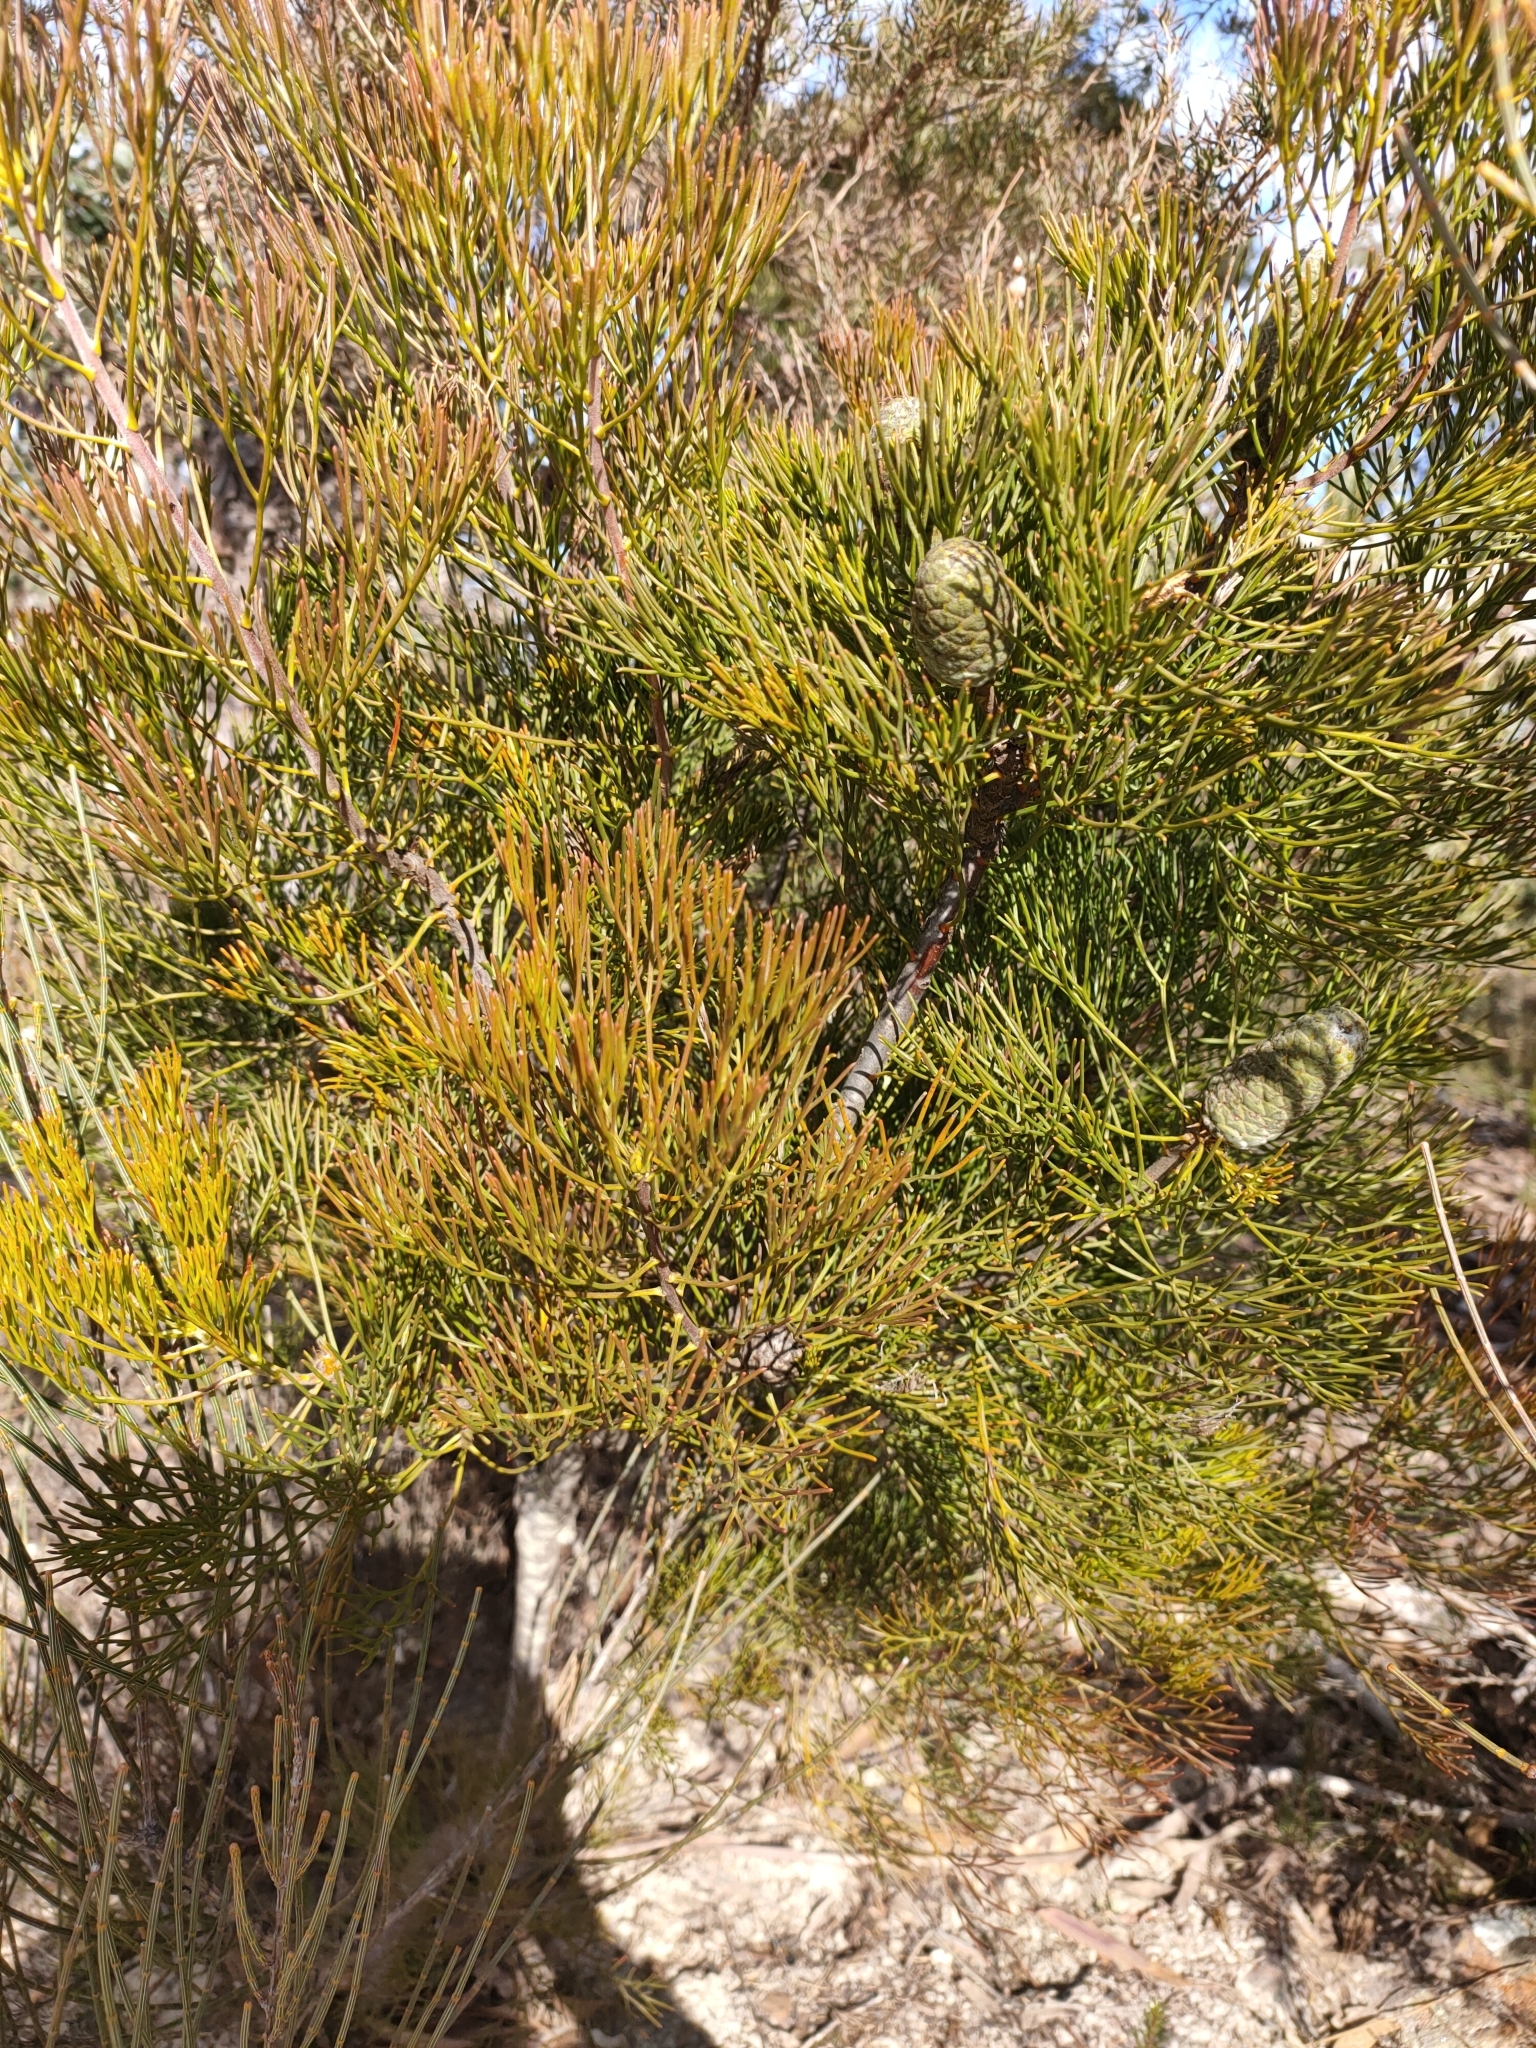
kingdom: Plantae
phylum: Tracheophyta
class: Magnoliopsida
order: Proteales
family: Proteaceae
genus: Petrophile
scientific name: Petrophile pulchella
